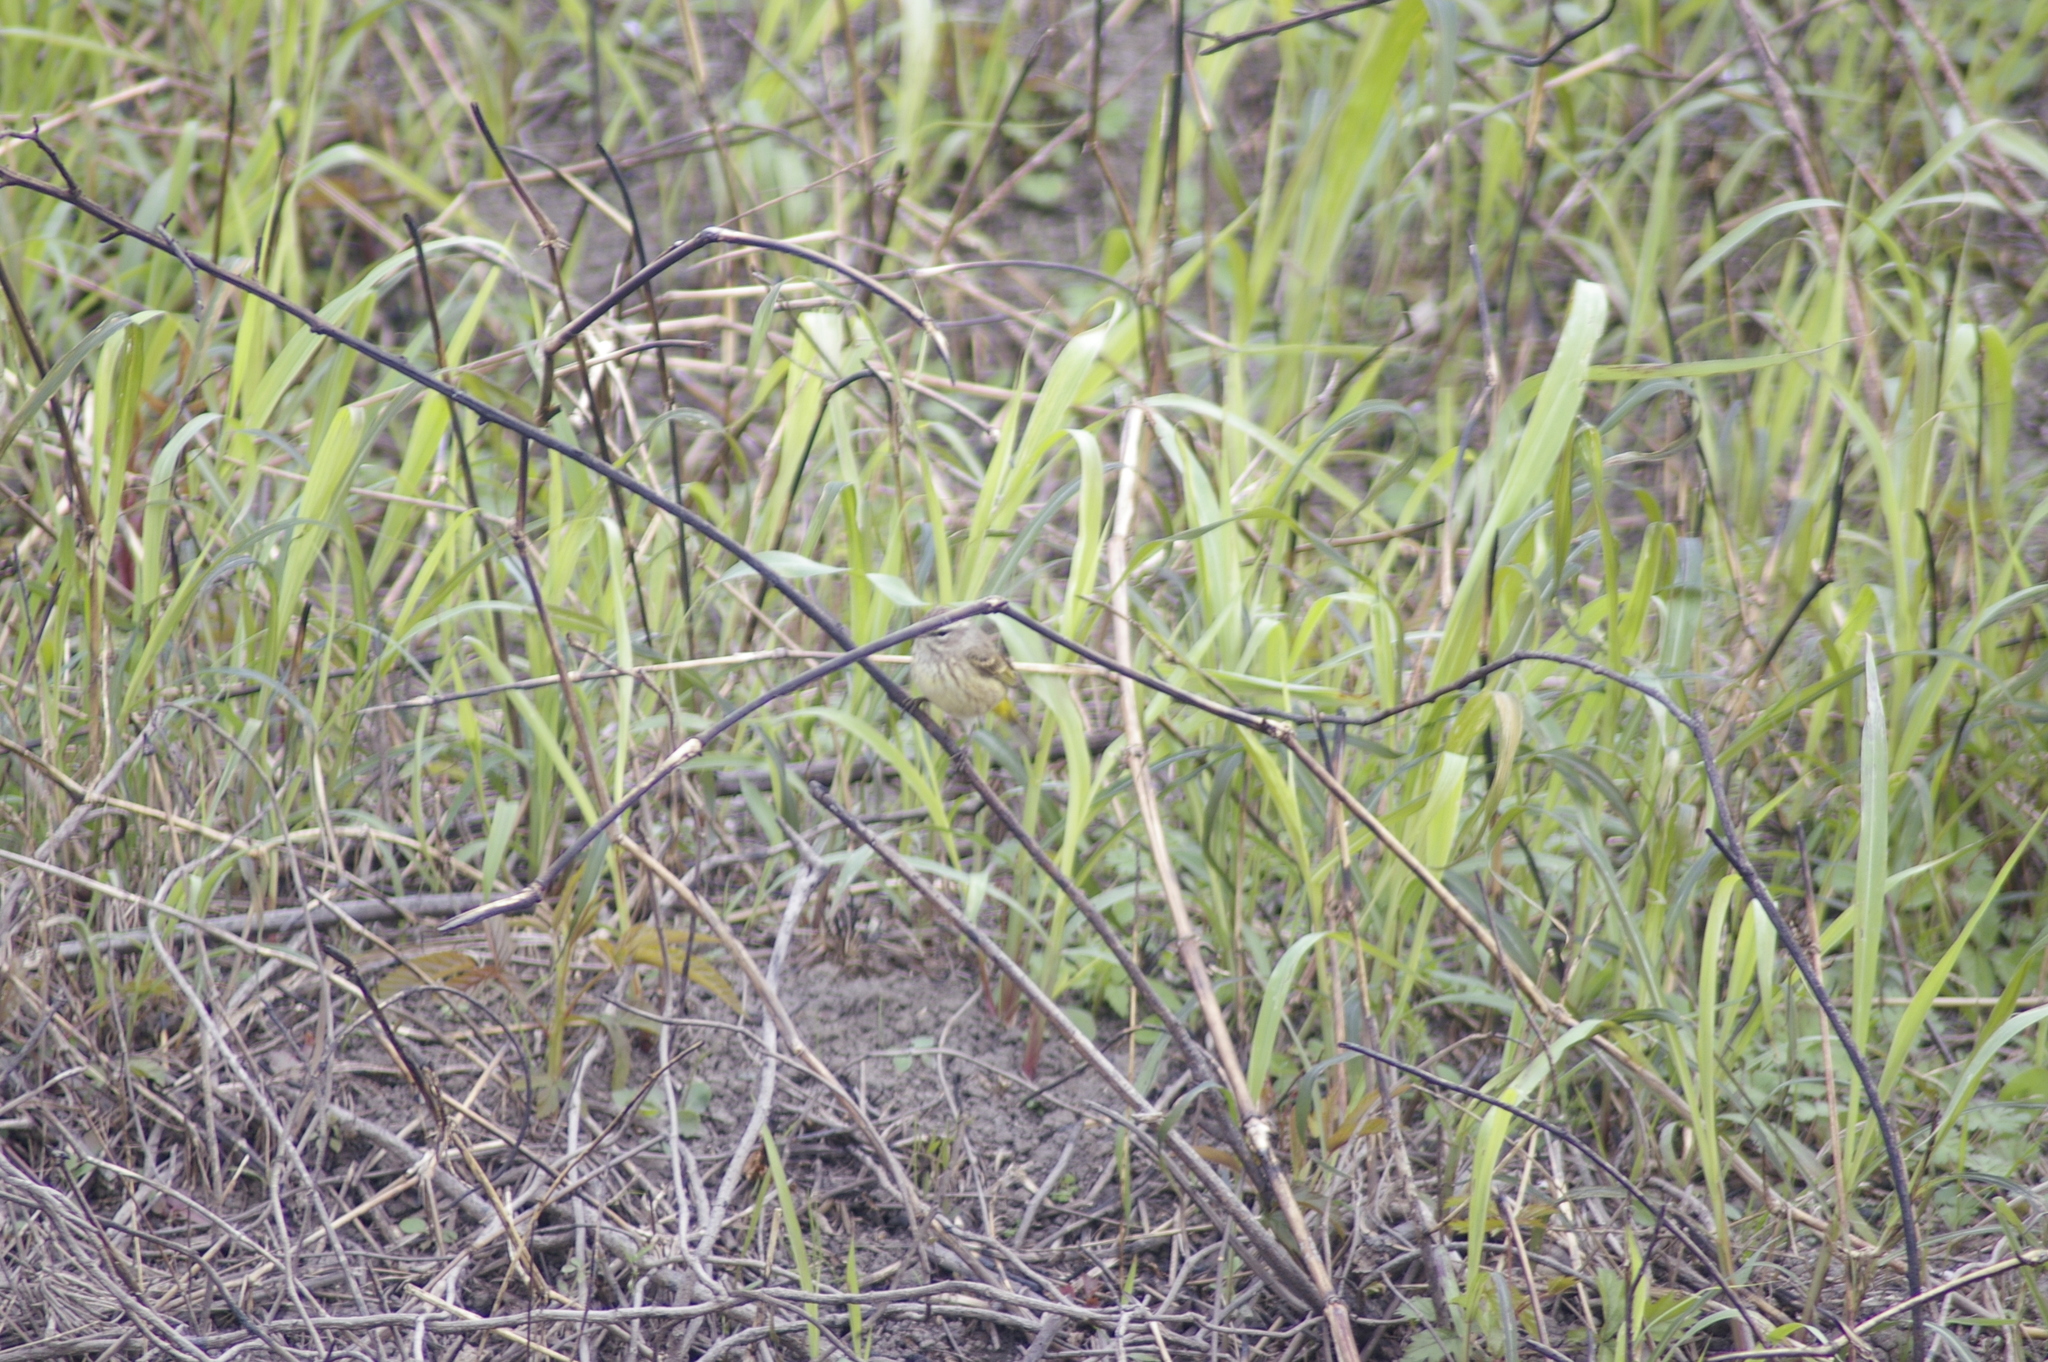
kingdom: Animalia
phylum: Chordata
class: Aves
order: Passeriformes
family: Parulidae
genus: Setophaga
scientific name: Setophaga palmarum
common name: Palm warbler
